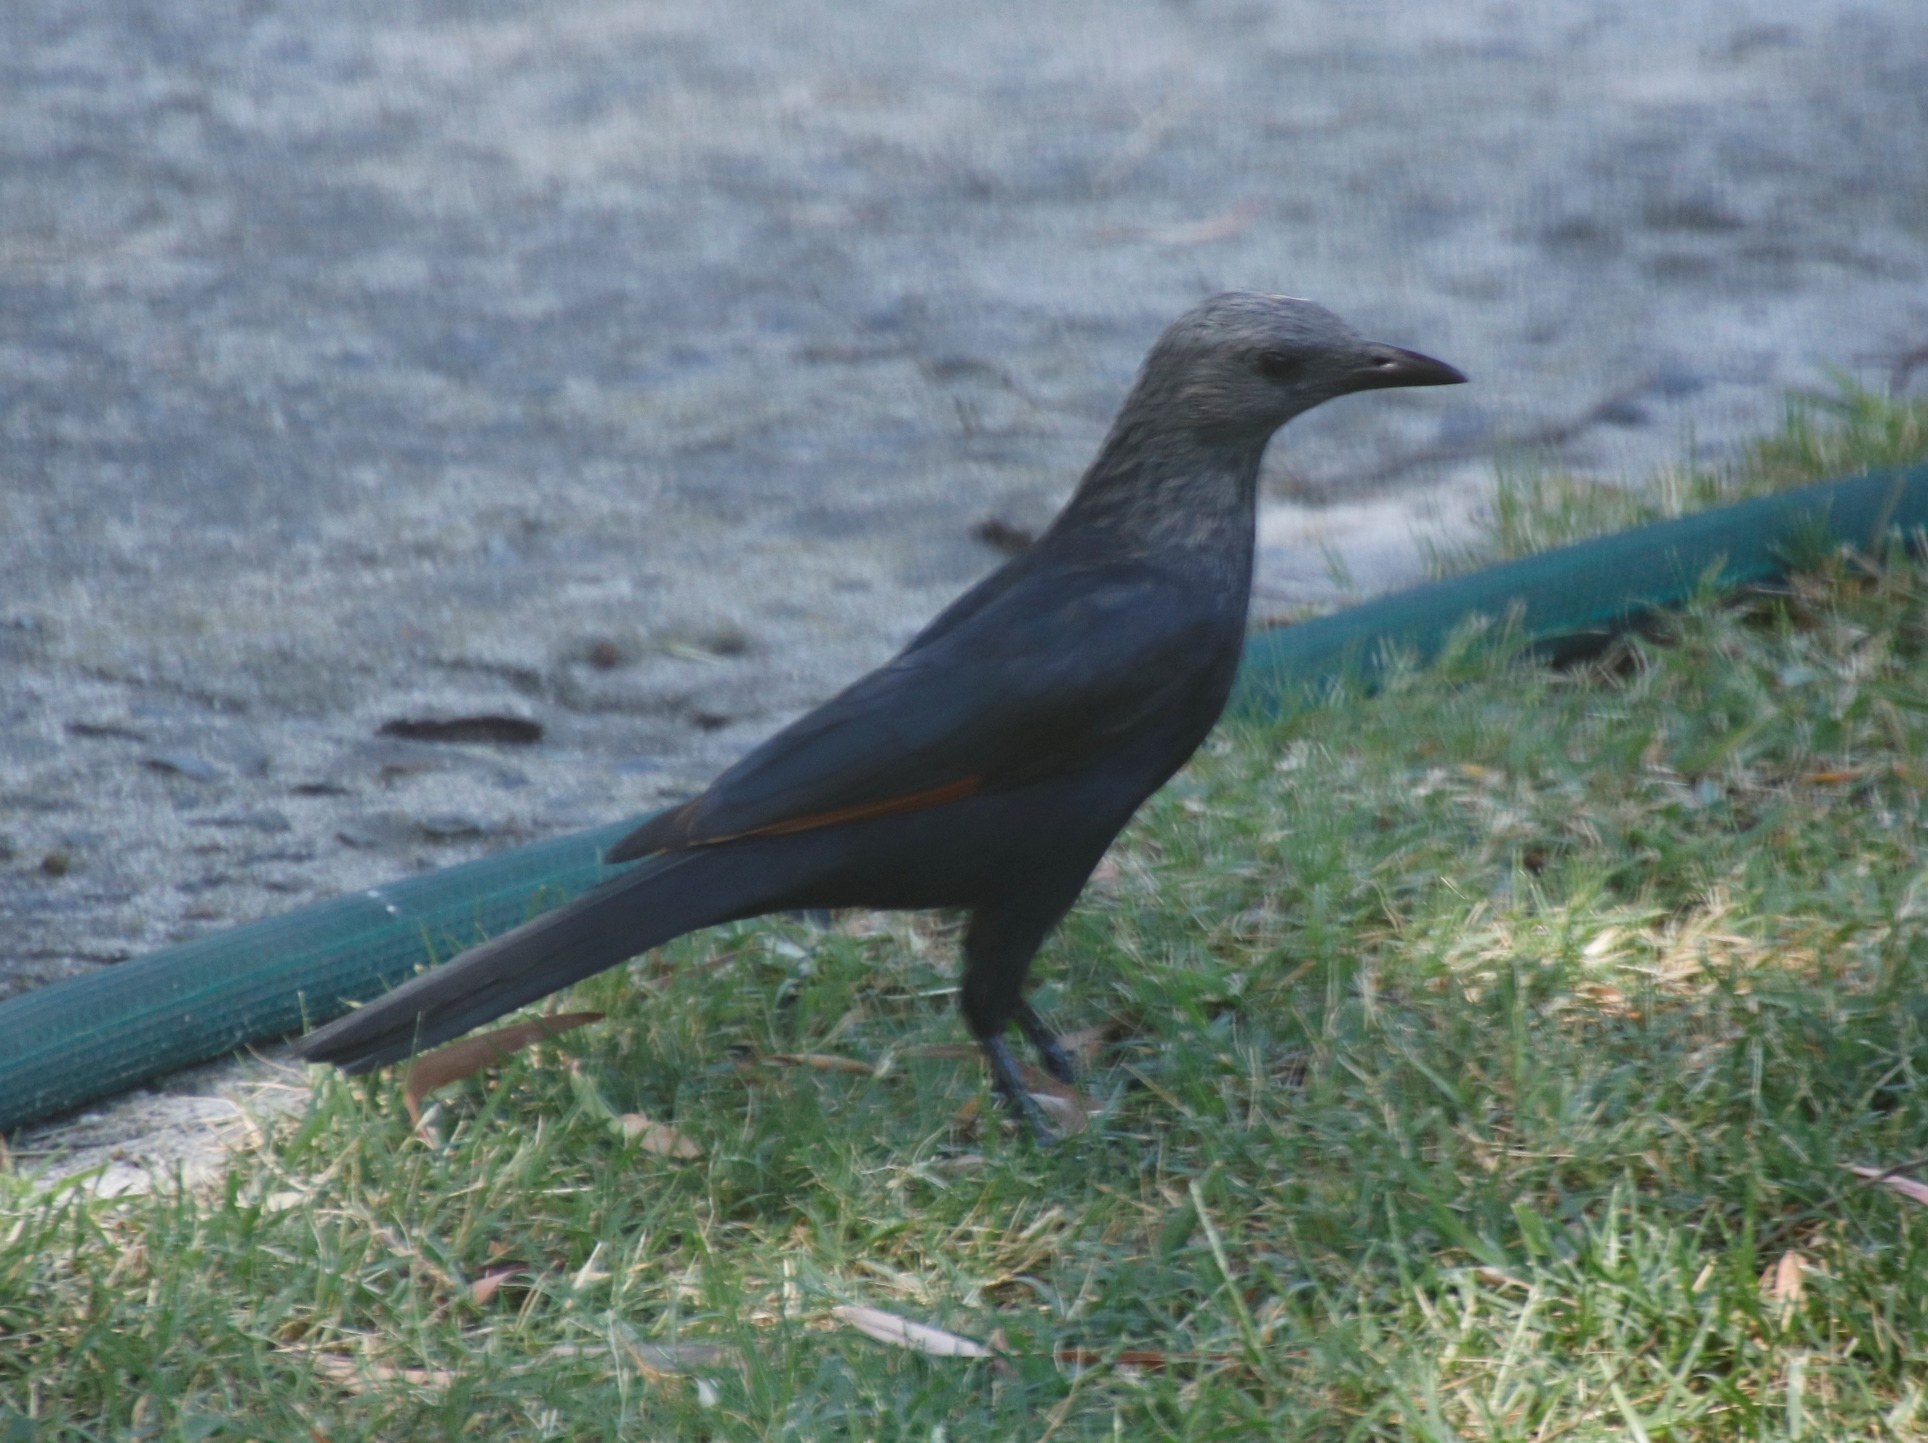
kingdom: Animalia
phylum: Chordata
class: Aves
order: Passeriformes
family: Sturnidae
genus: Onychognathus
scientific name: Onychognathus morio
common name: Red-winged starling
